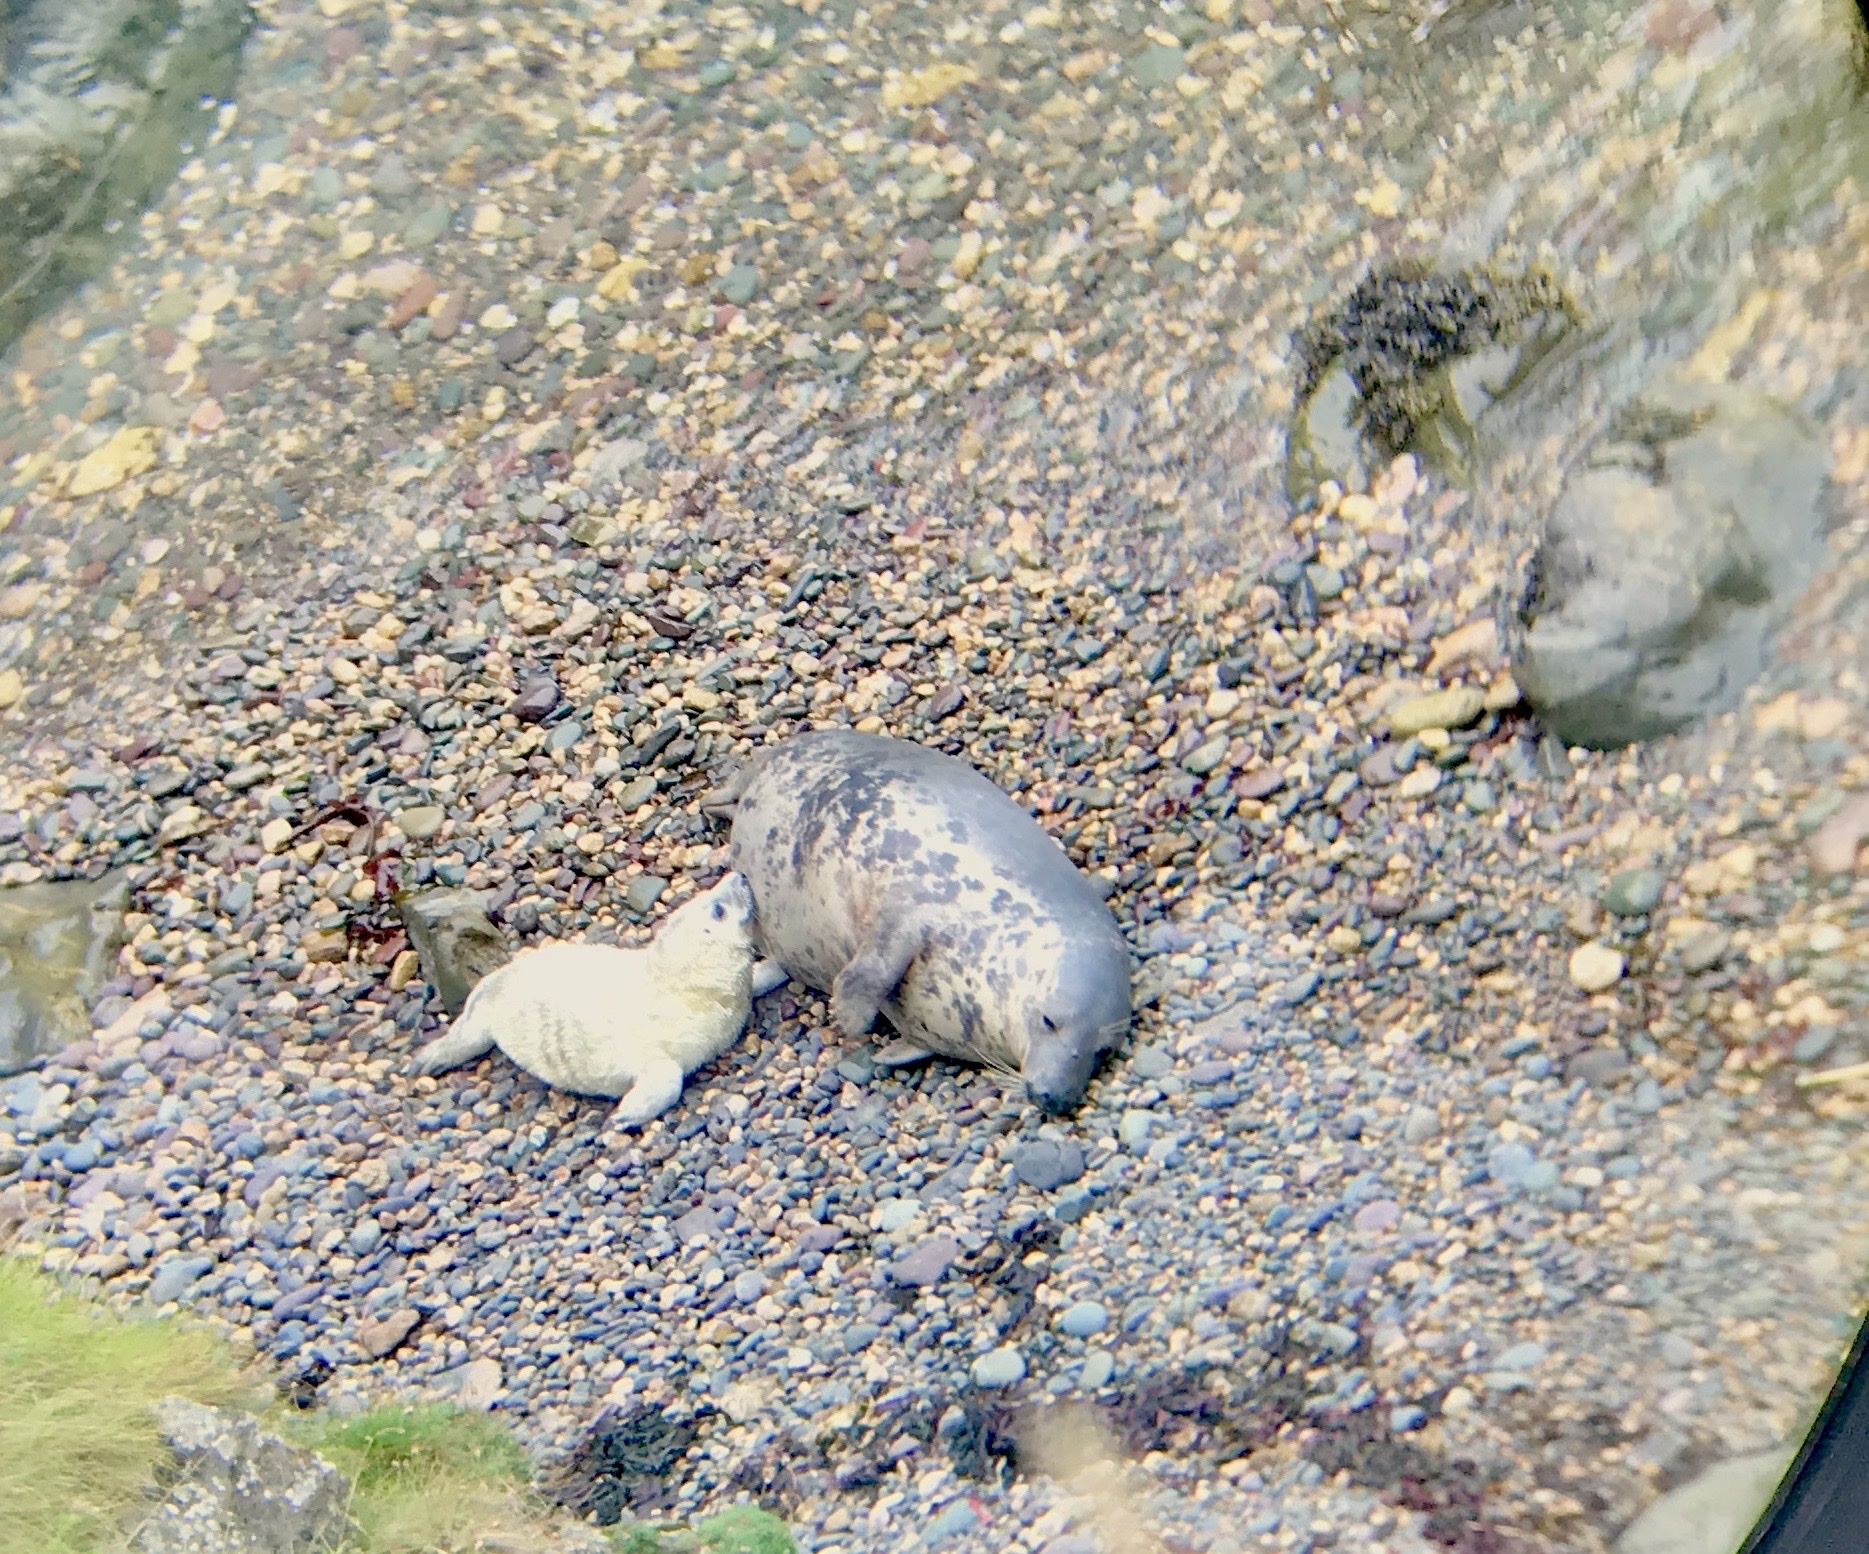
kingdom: Animalia
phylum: Chordata
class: Mammalia
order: Carnivora
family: Phocidae
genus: Halichoerus
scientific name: Halichoerus grypus
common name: Grey seal
